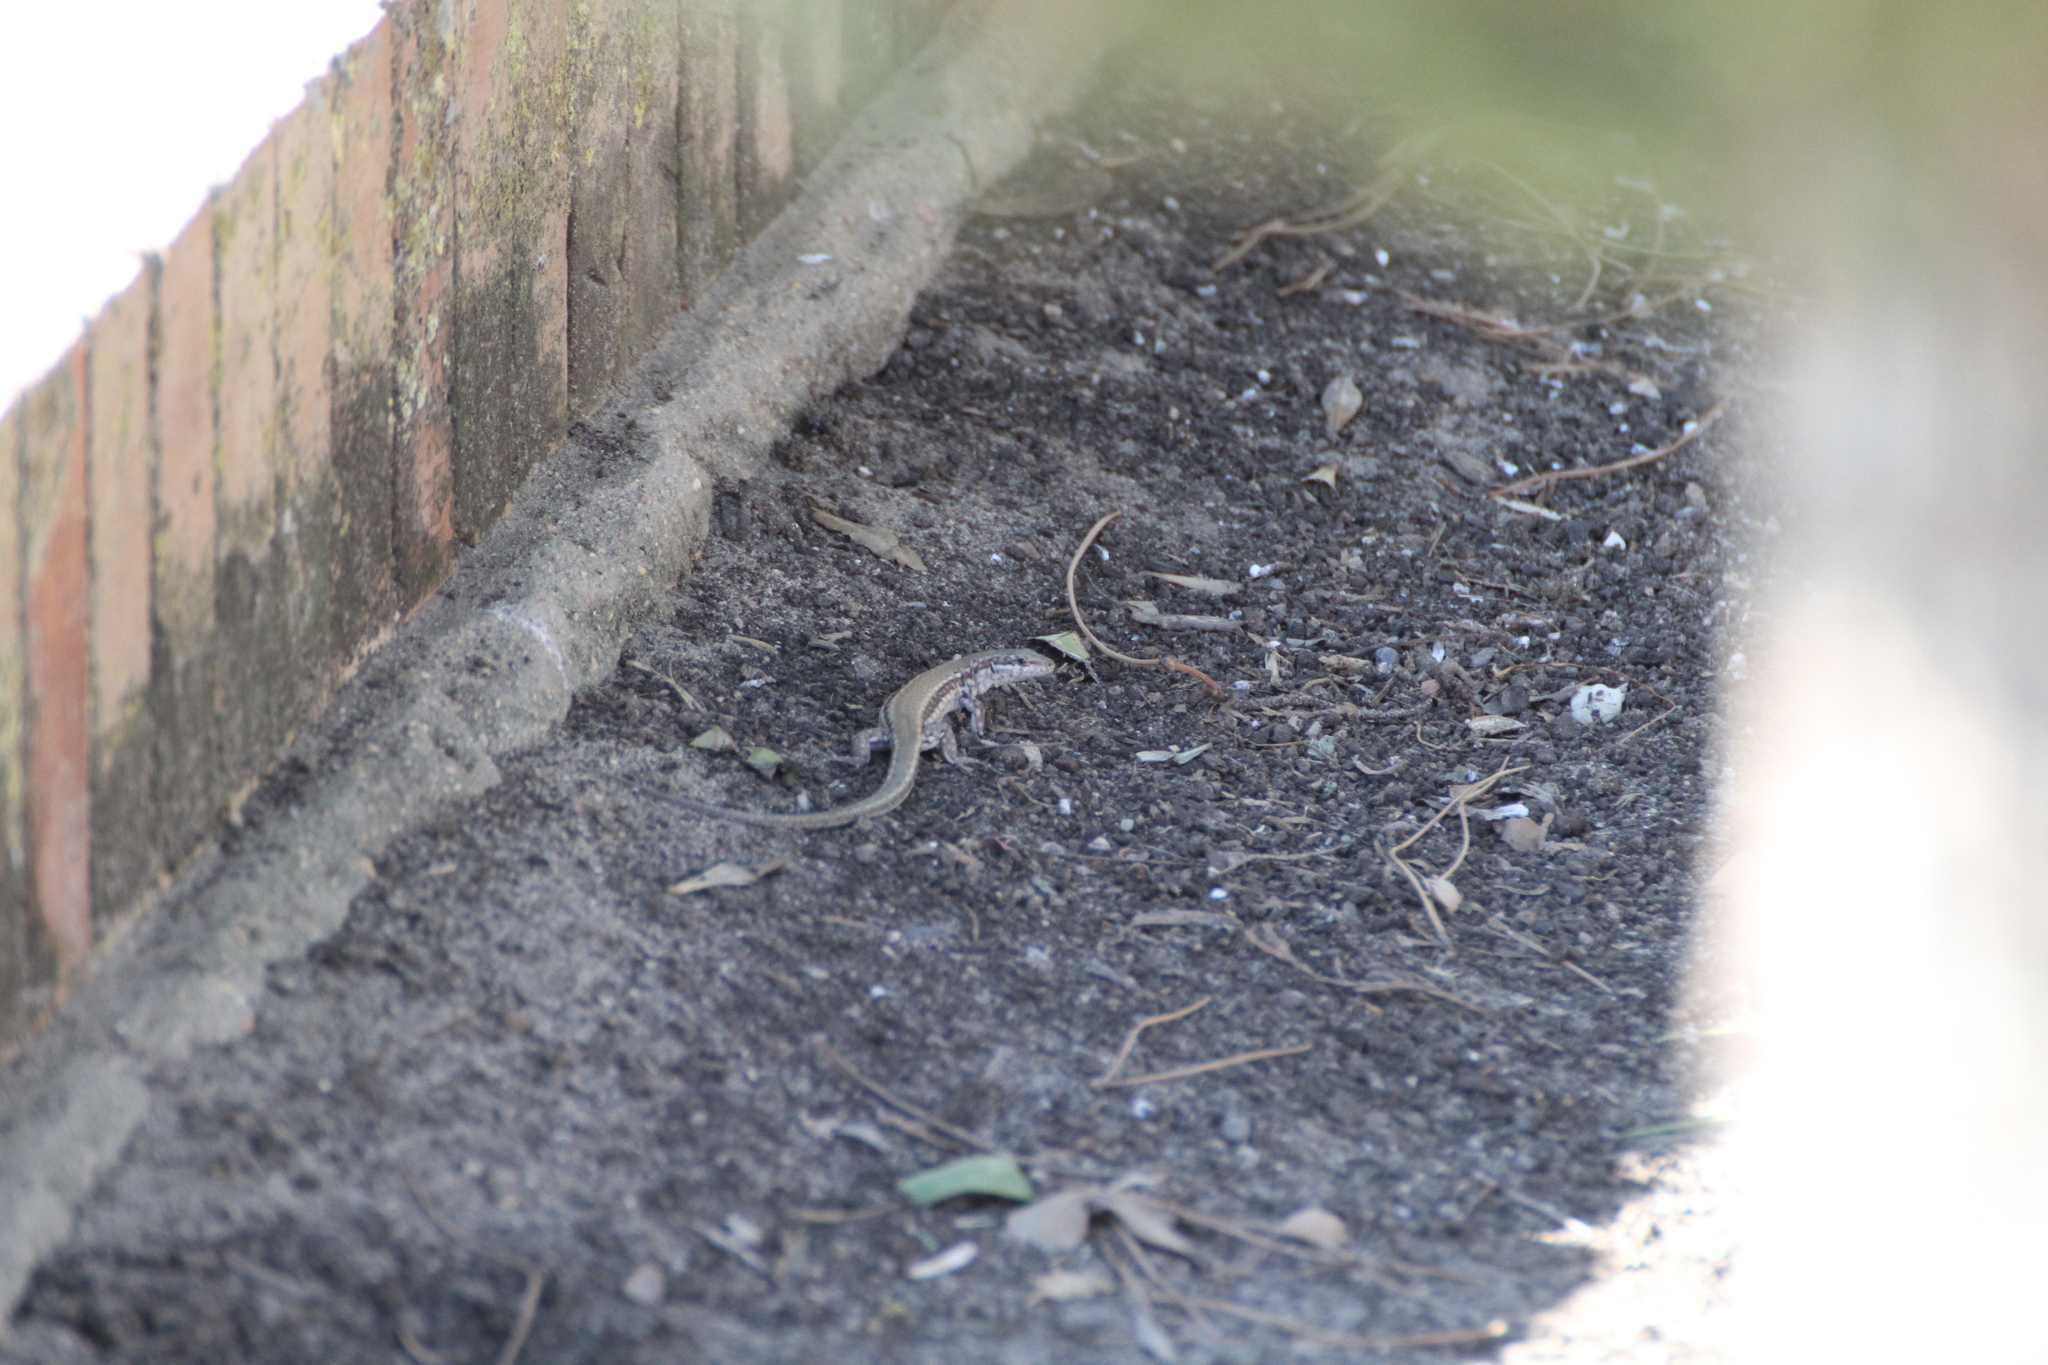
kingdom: Animalia
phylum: Chordata
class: Squamata
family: Lacertidae
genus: Podarcis
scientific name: Podarcis vaucheri
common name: Vaucher's wall lizard
